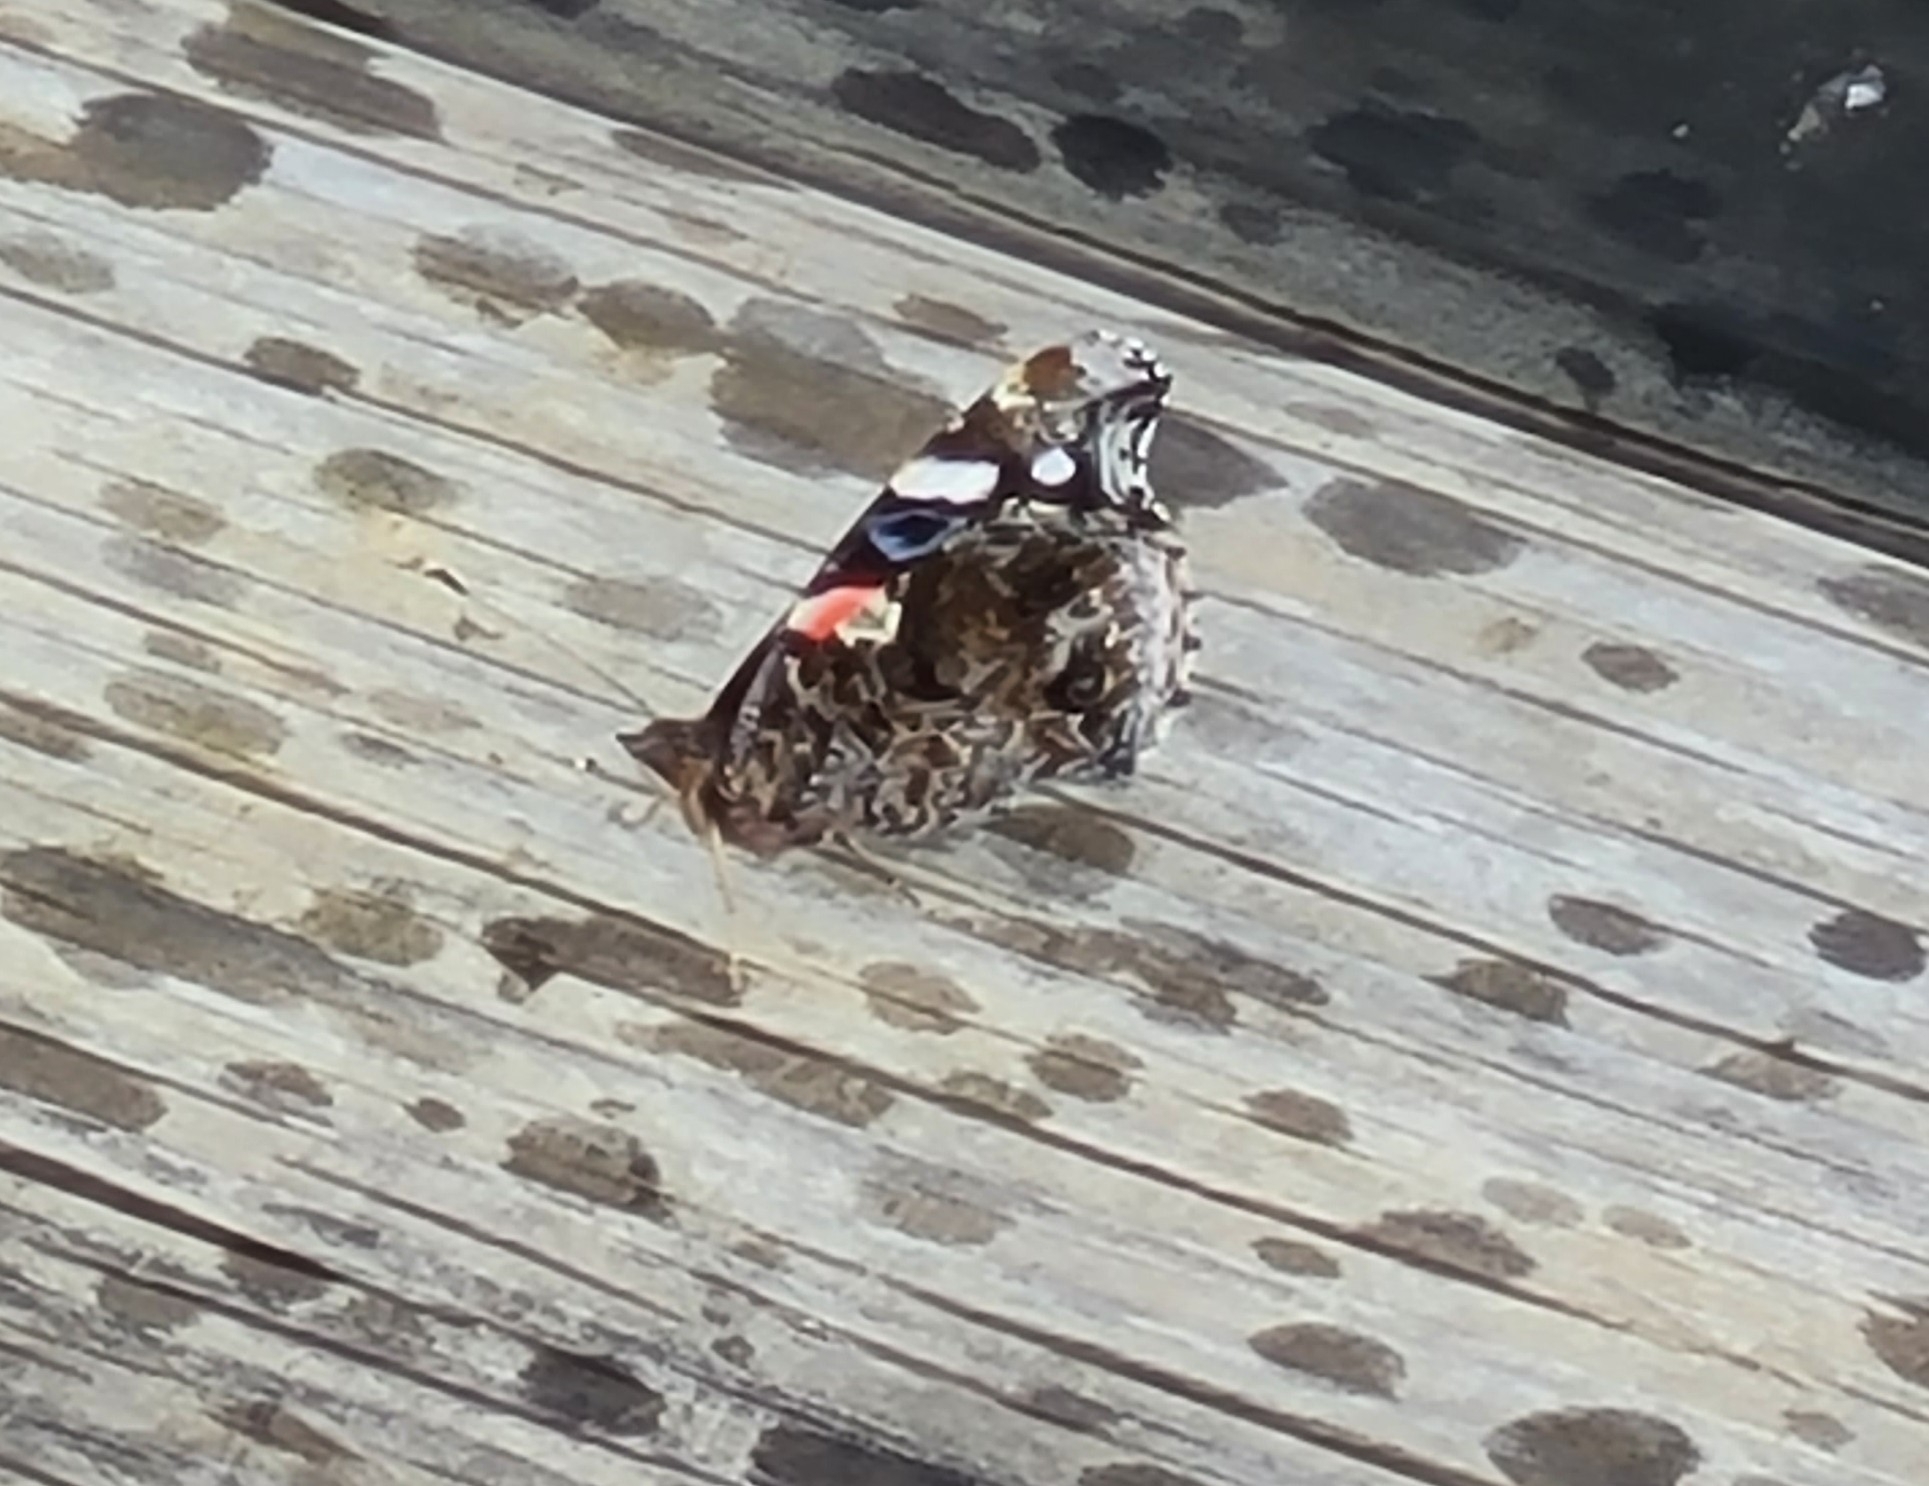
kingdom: Animalia
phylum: Arthropoda
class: Insecta
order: Lepidoptera
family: Nymphalidae
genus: Vanessa
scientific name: Vanessa atalanta
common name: Red admiral
